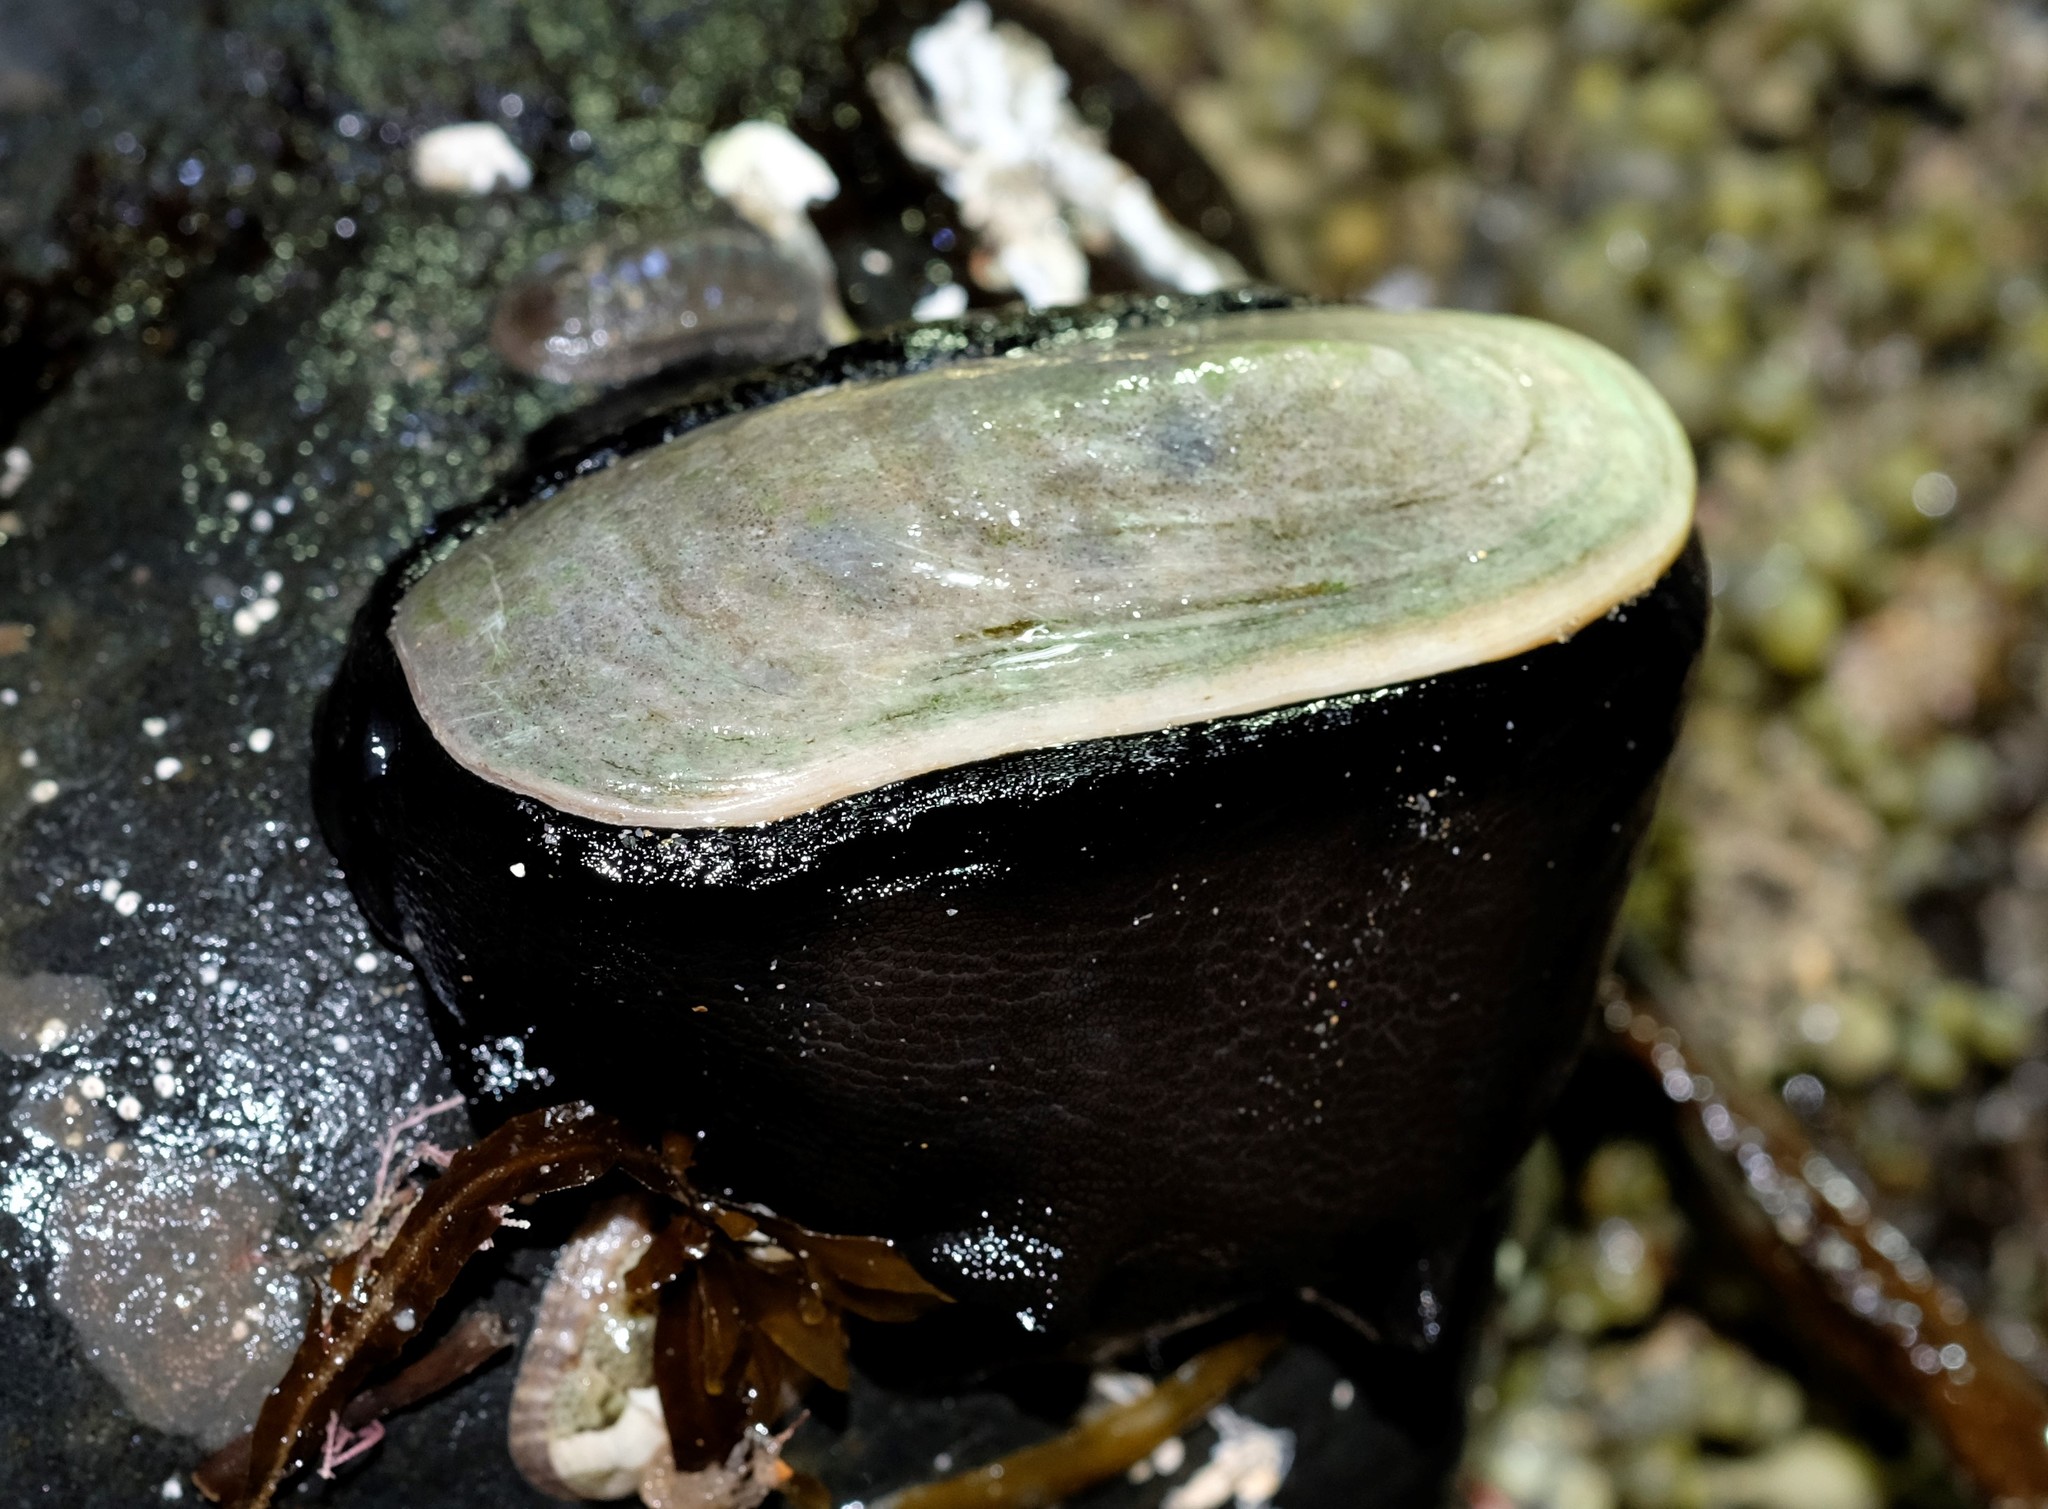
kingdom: Animalia
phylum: Mollusca
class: Gastropoda
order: Lepetellida
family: Fissurellidae
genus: Scutus
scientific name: Scutus antipodes
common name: Duckbill shell
